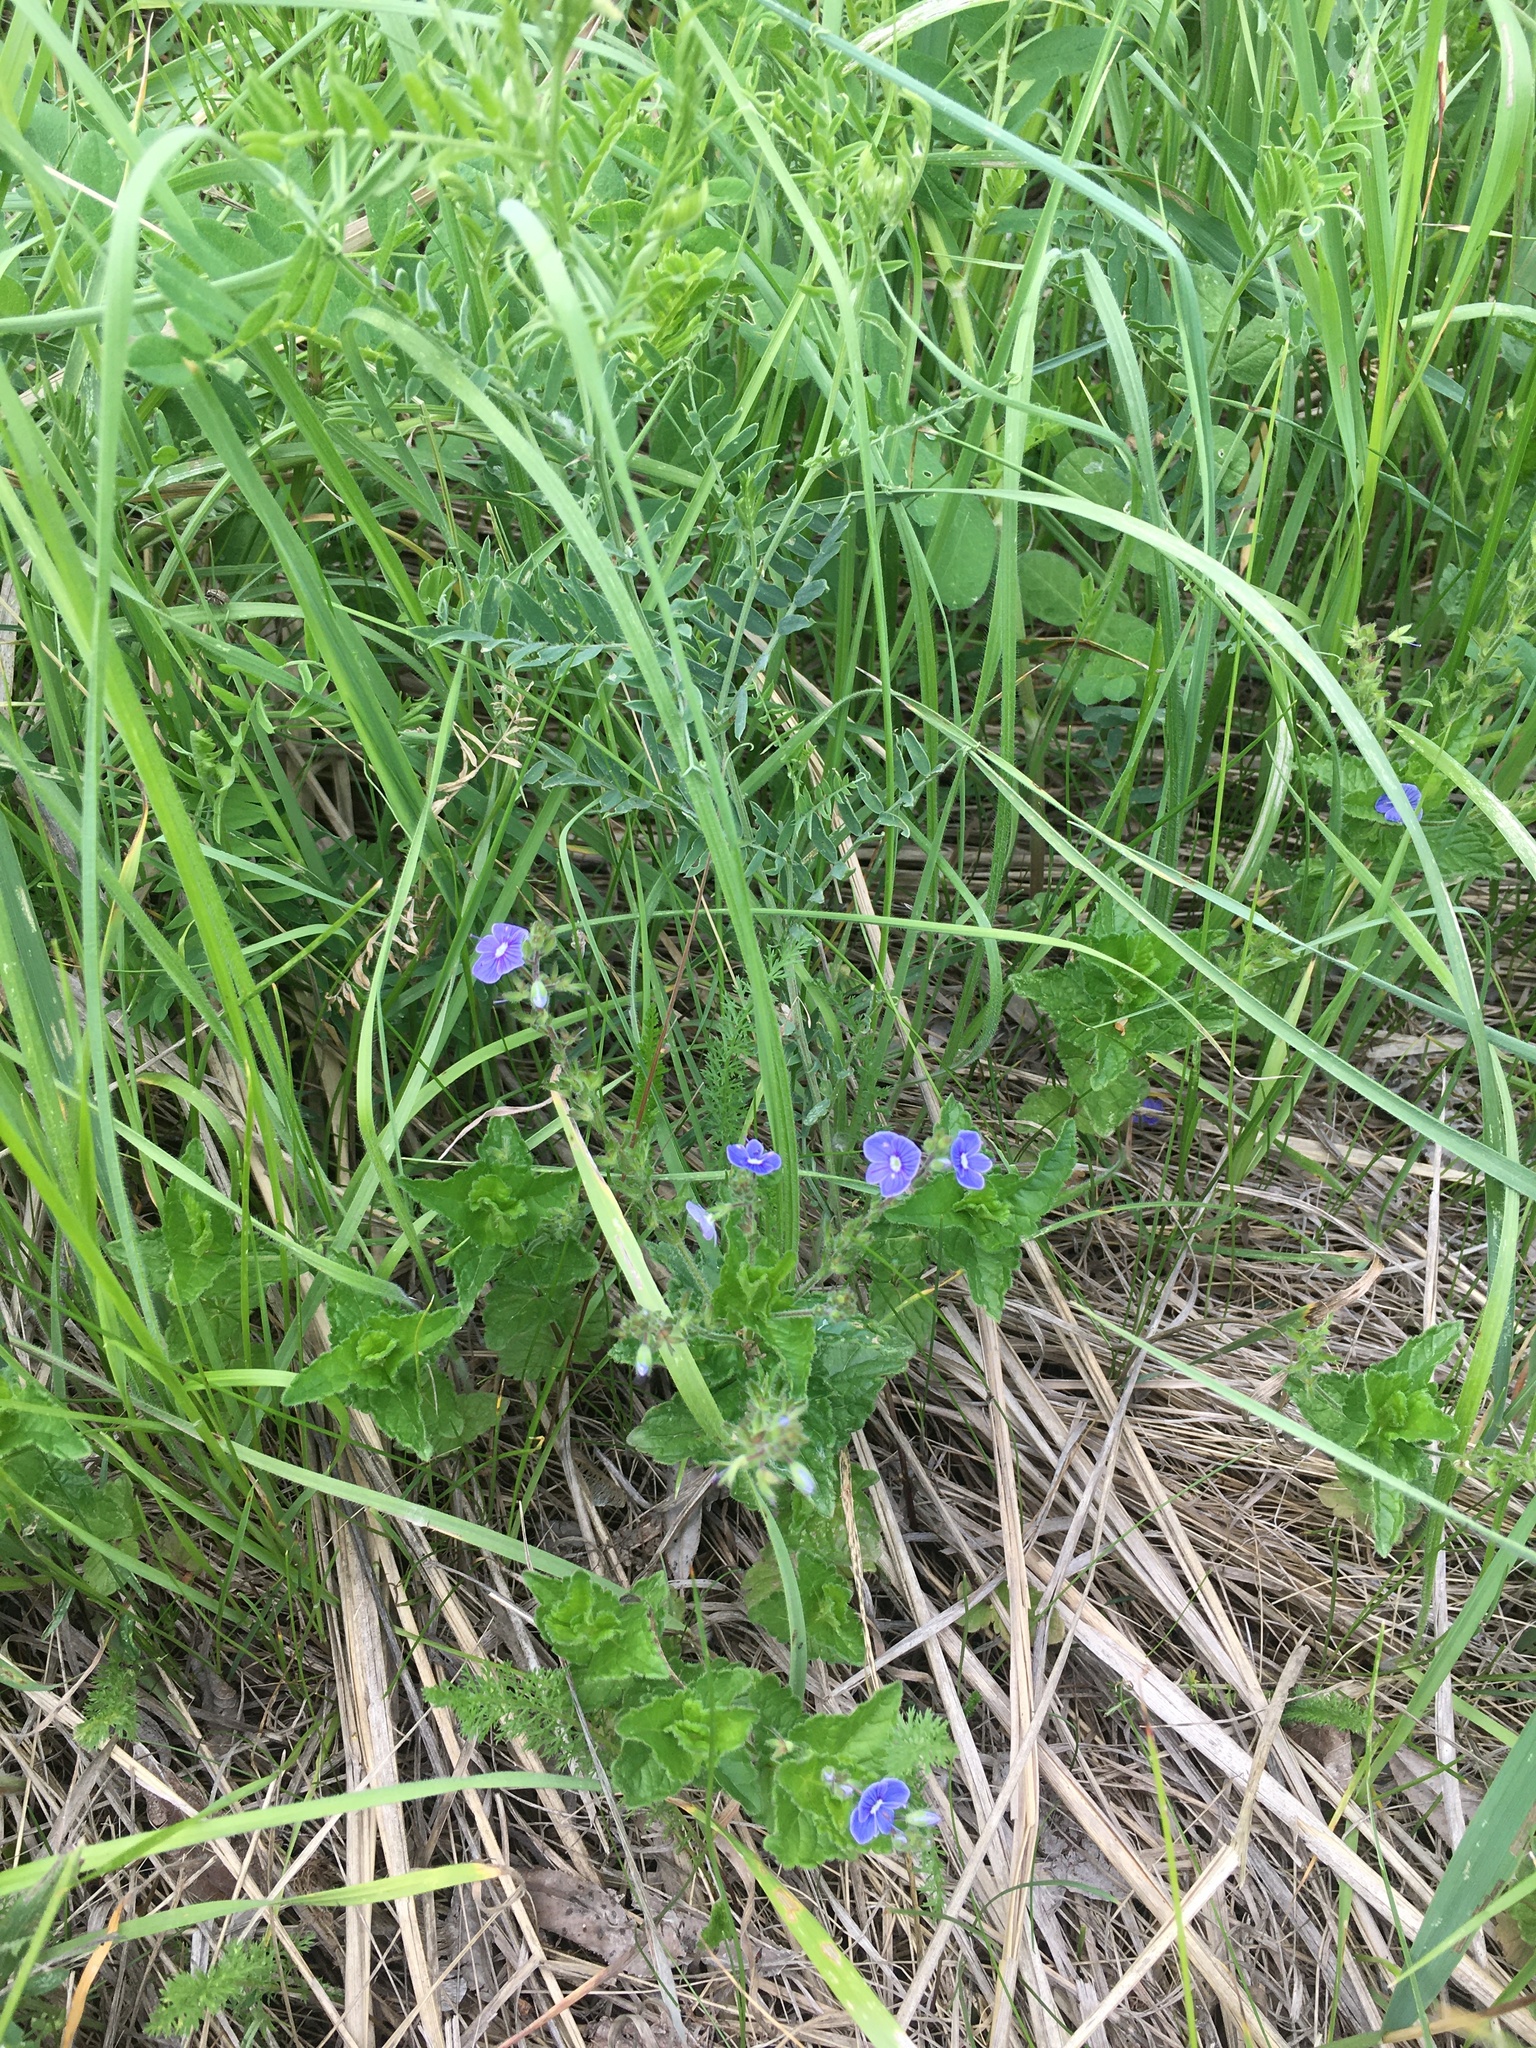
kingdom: Plantae
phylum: Tracheophyta
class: Magnoliopsida
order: Lamiales
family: Plantaginaceae
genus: Veronica
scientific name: Veronica chamaedrys
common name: Germander speedwell
